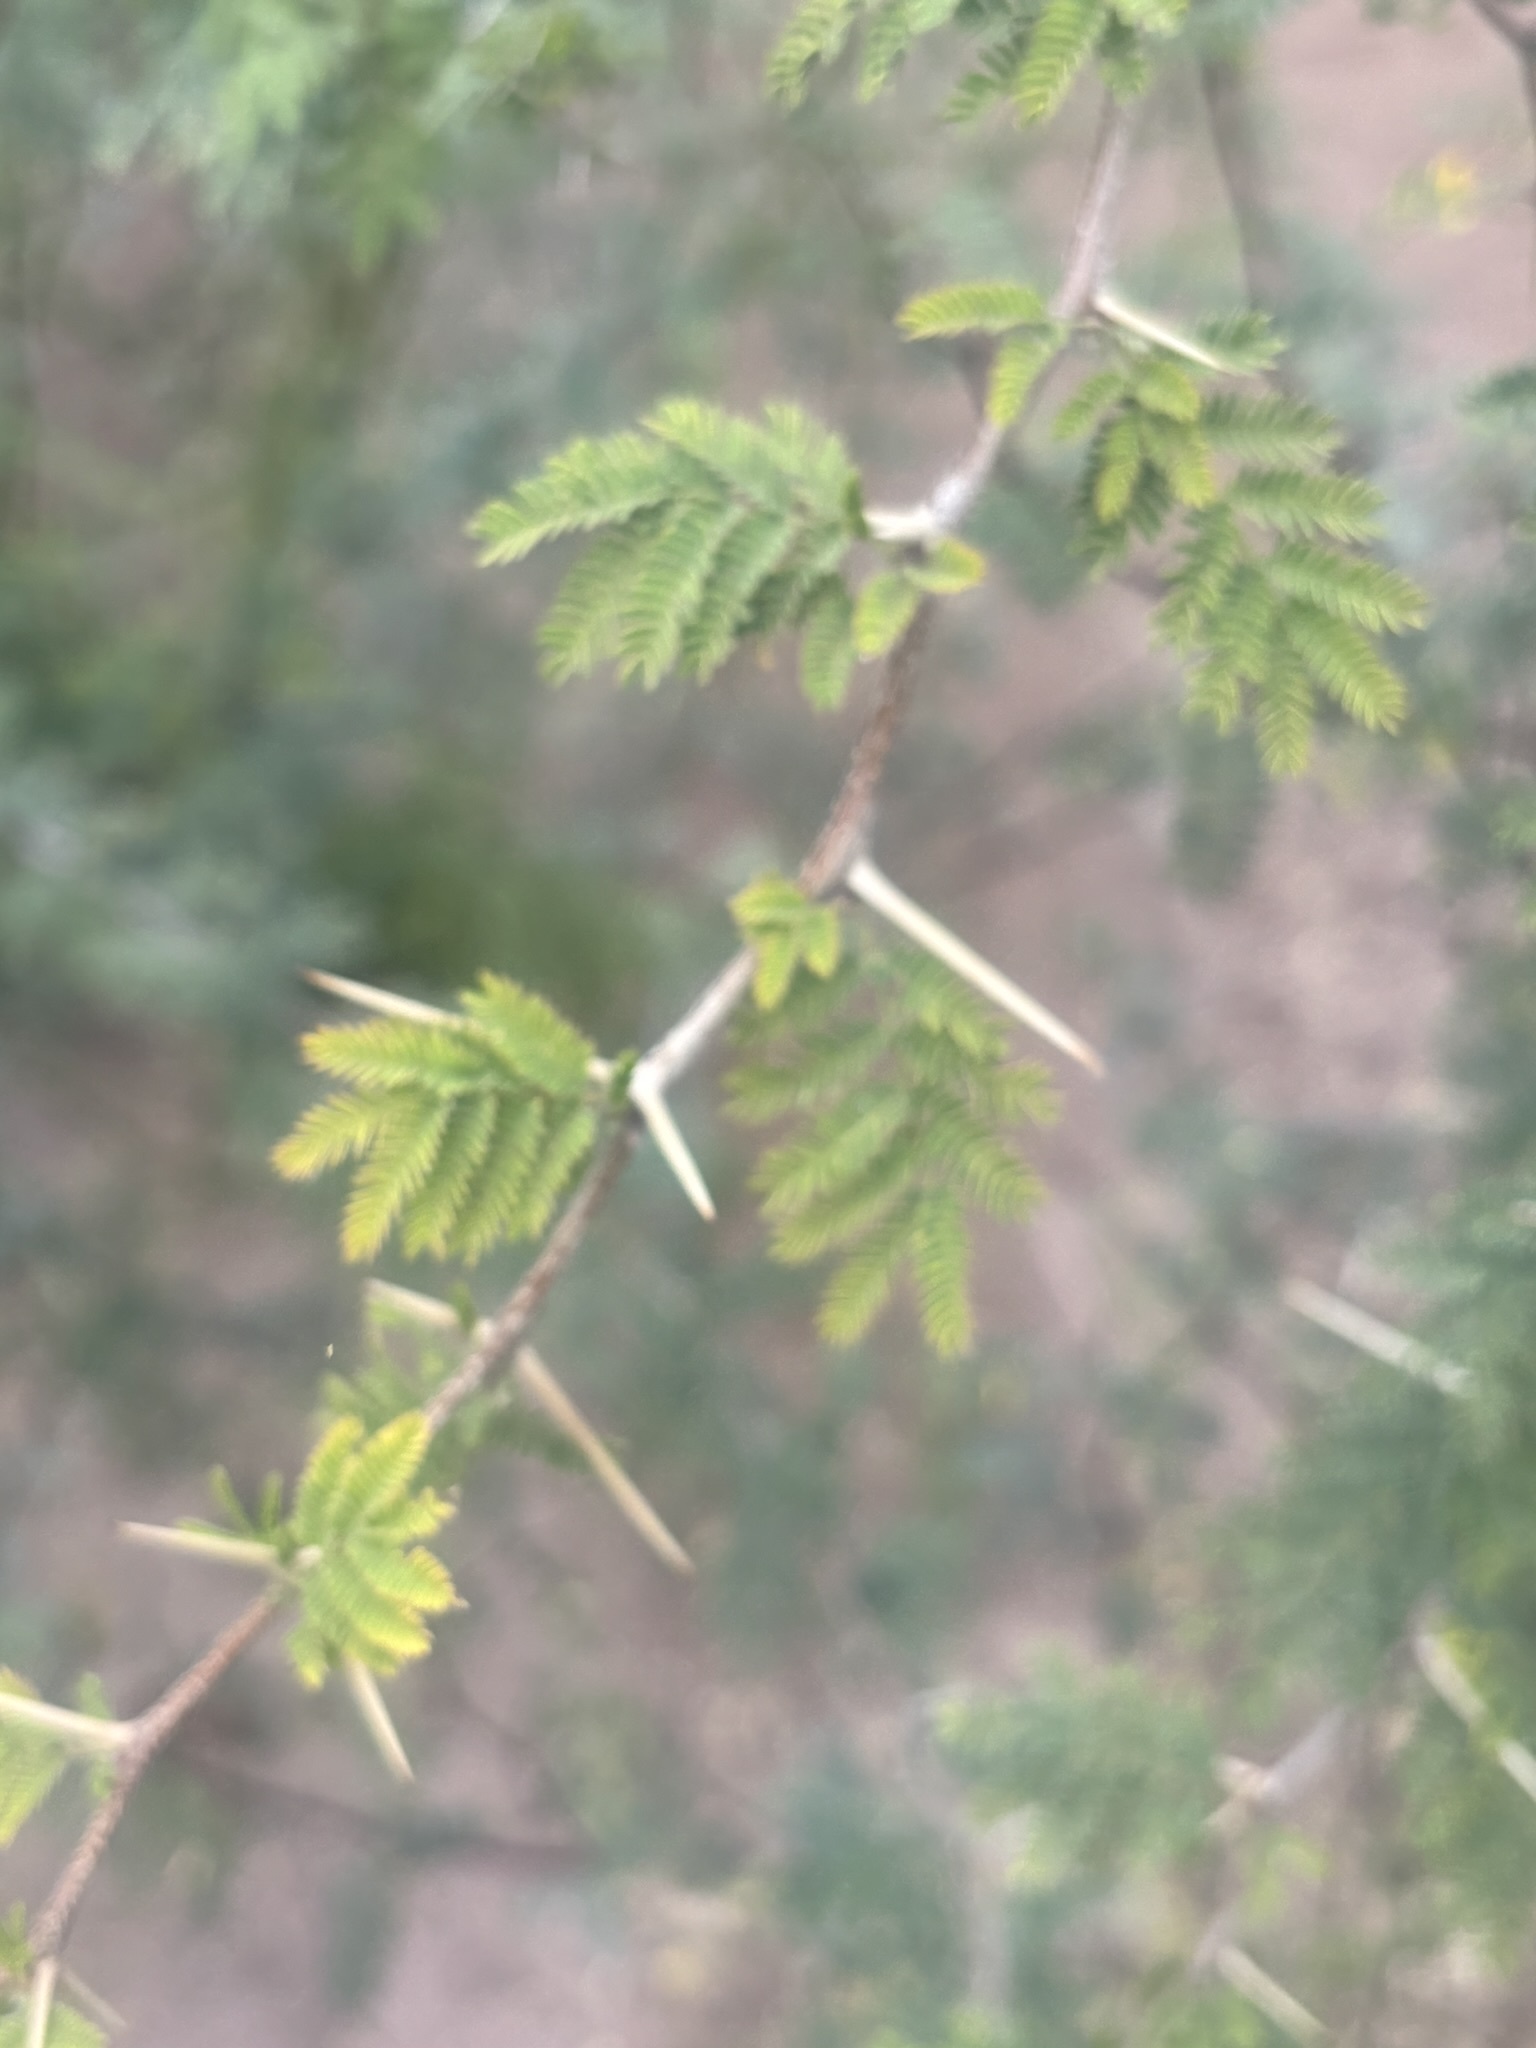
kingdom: Plantae
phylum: Tracheophyta
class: Magnoliopsida
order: Fabales
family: Fabaceae
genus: Vachellia
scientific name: Vachellia farnesiana
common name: Sweet acacia
